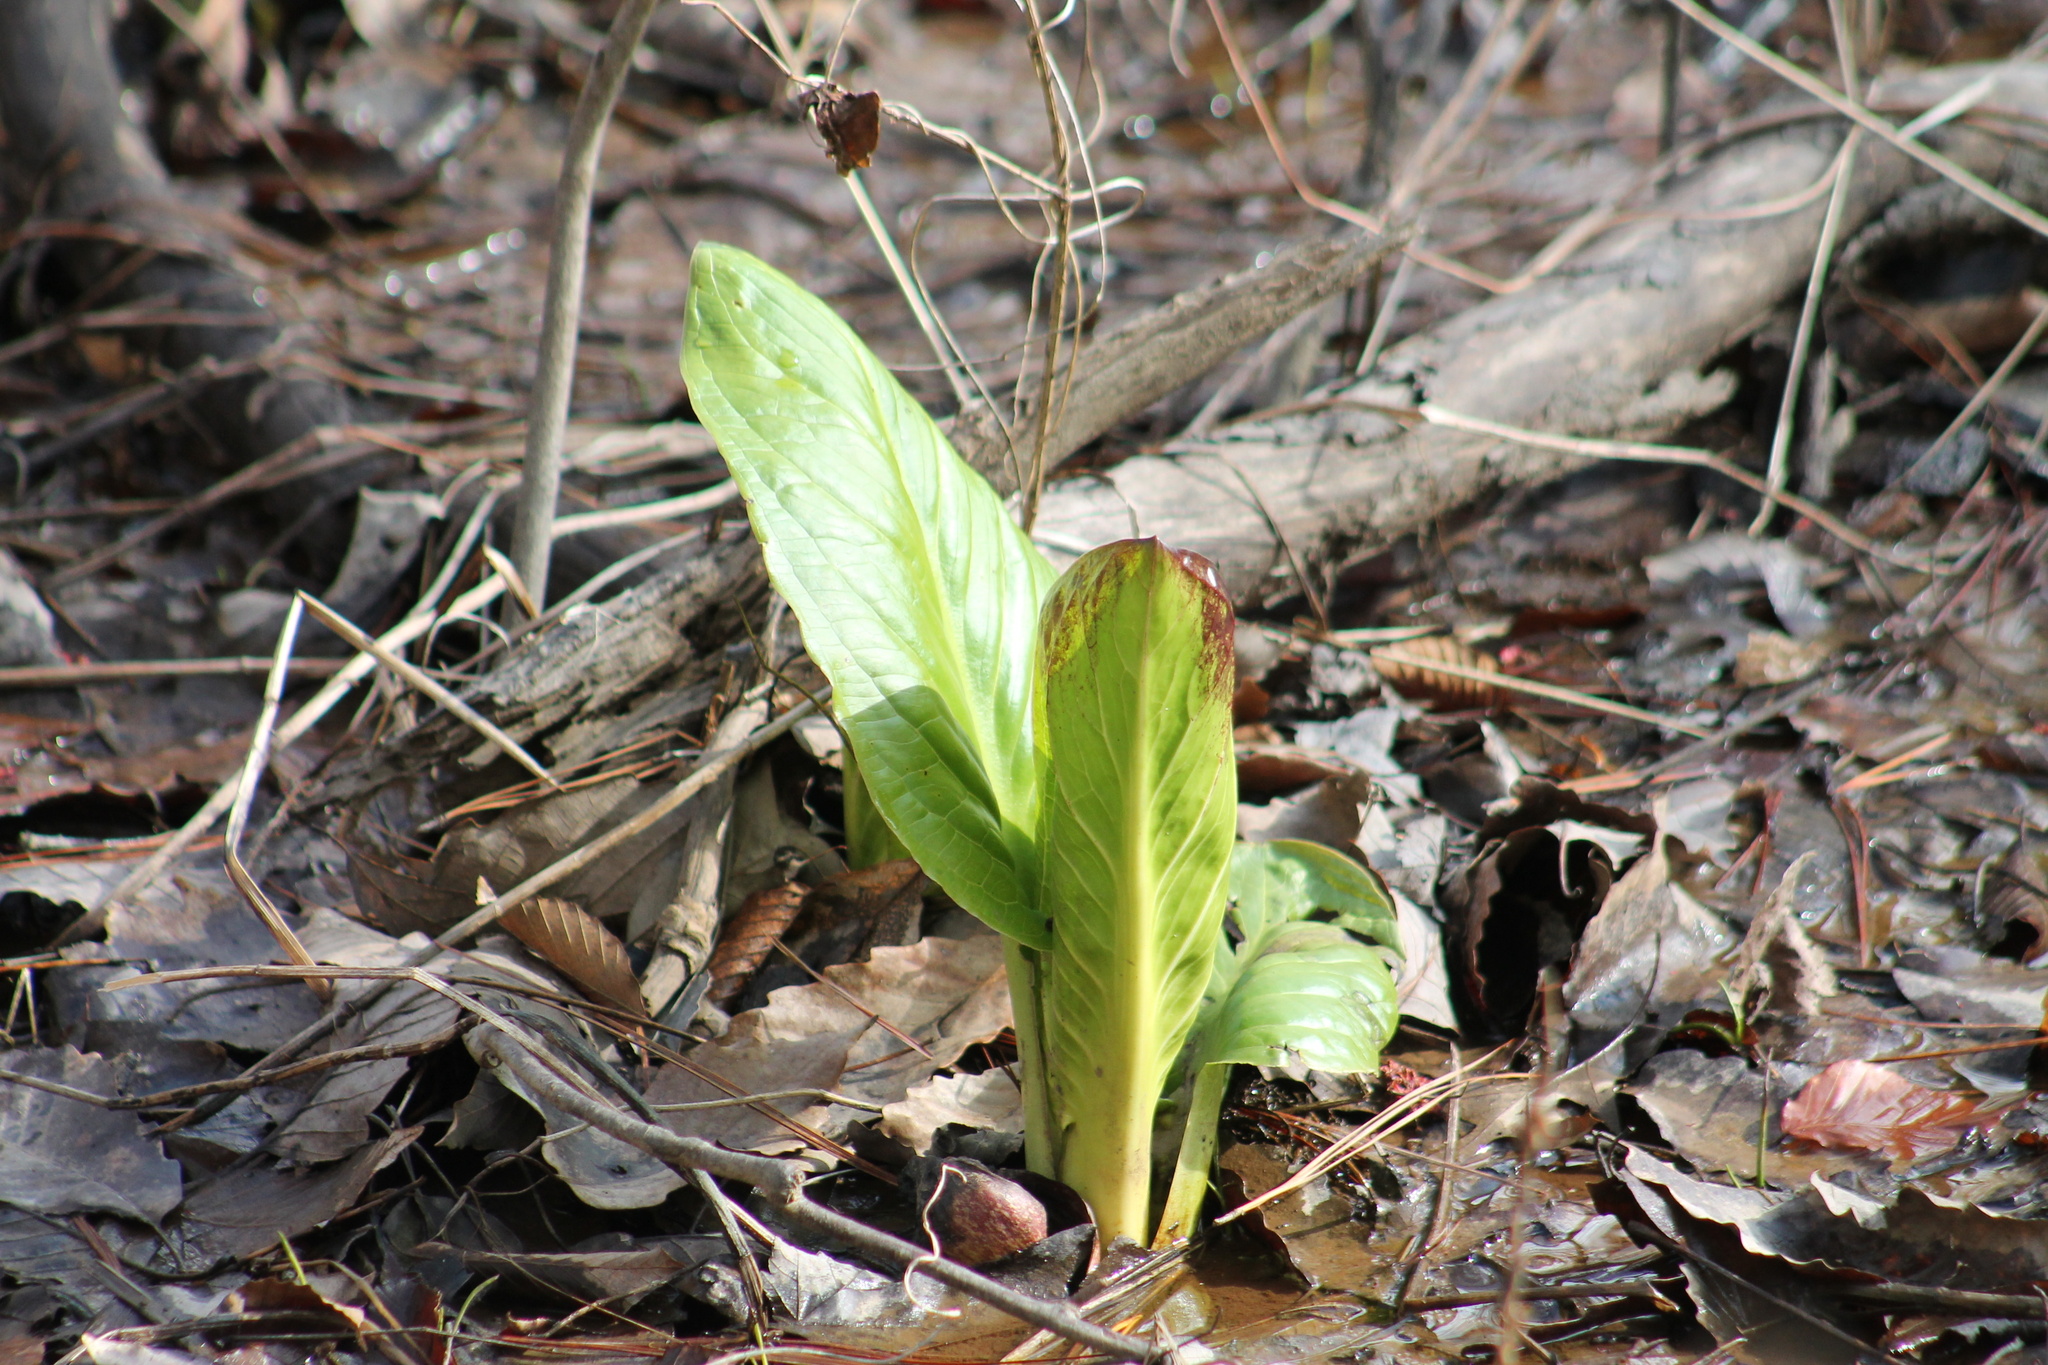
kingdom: Plantae
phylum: Tracheophyta
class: Liliopsida
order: Alismatales
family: Araceae
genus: Symplocarpus
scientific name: Symplocarpus foetidus
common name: Eastern skunk cabbage
